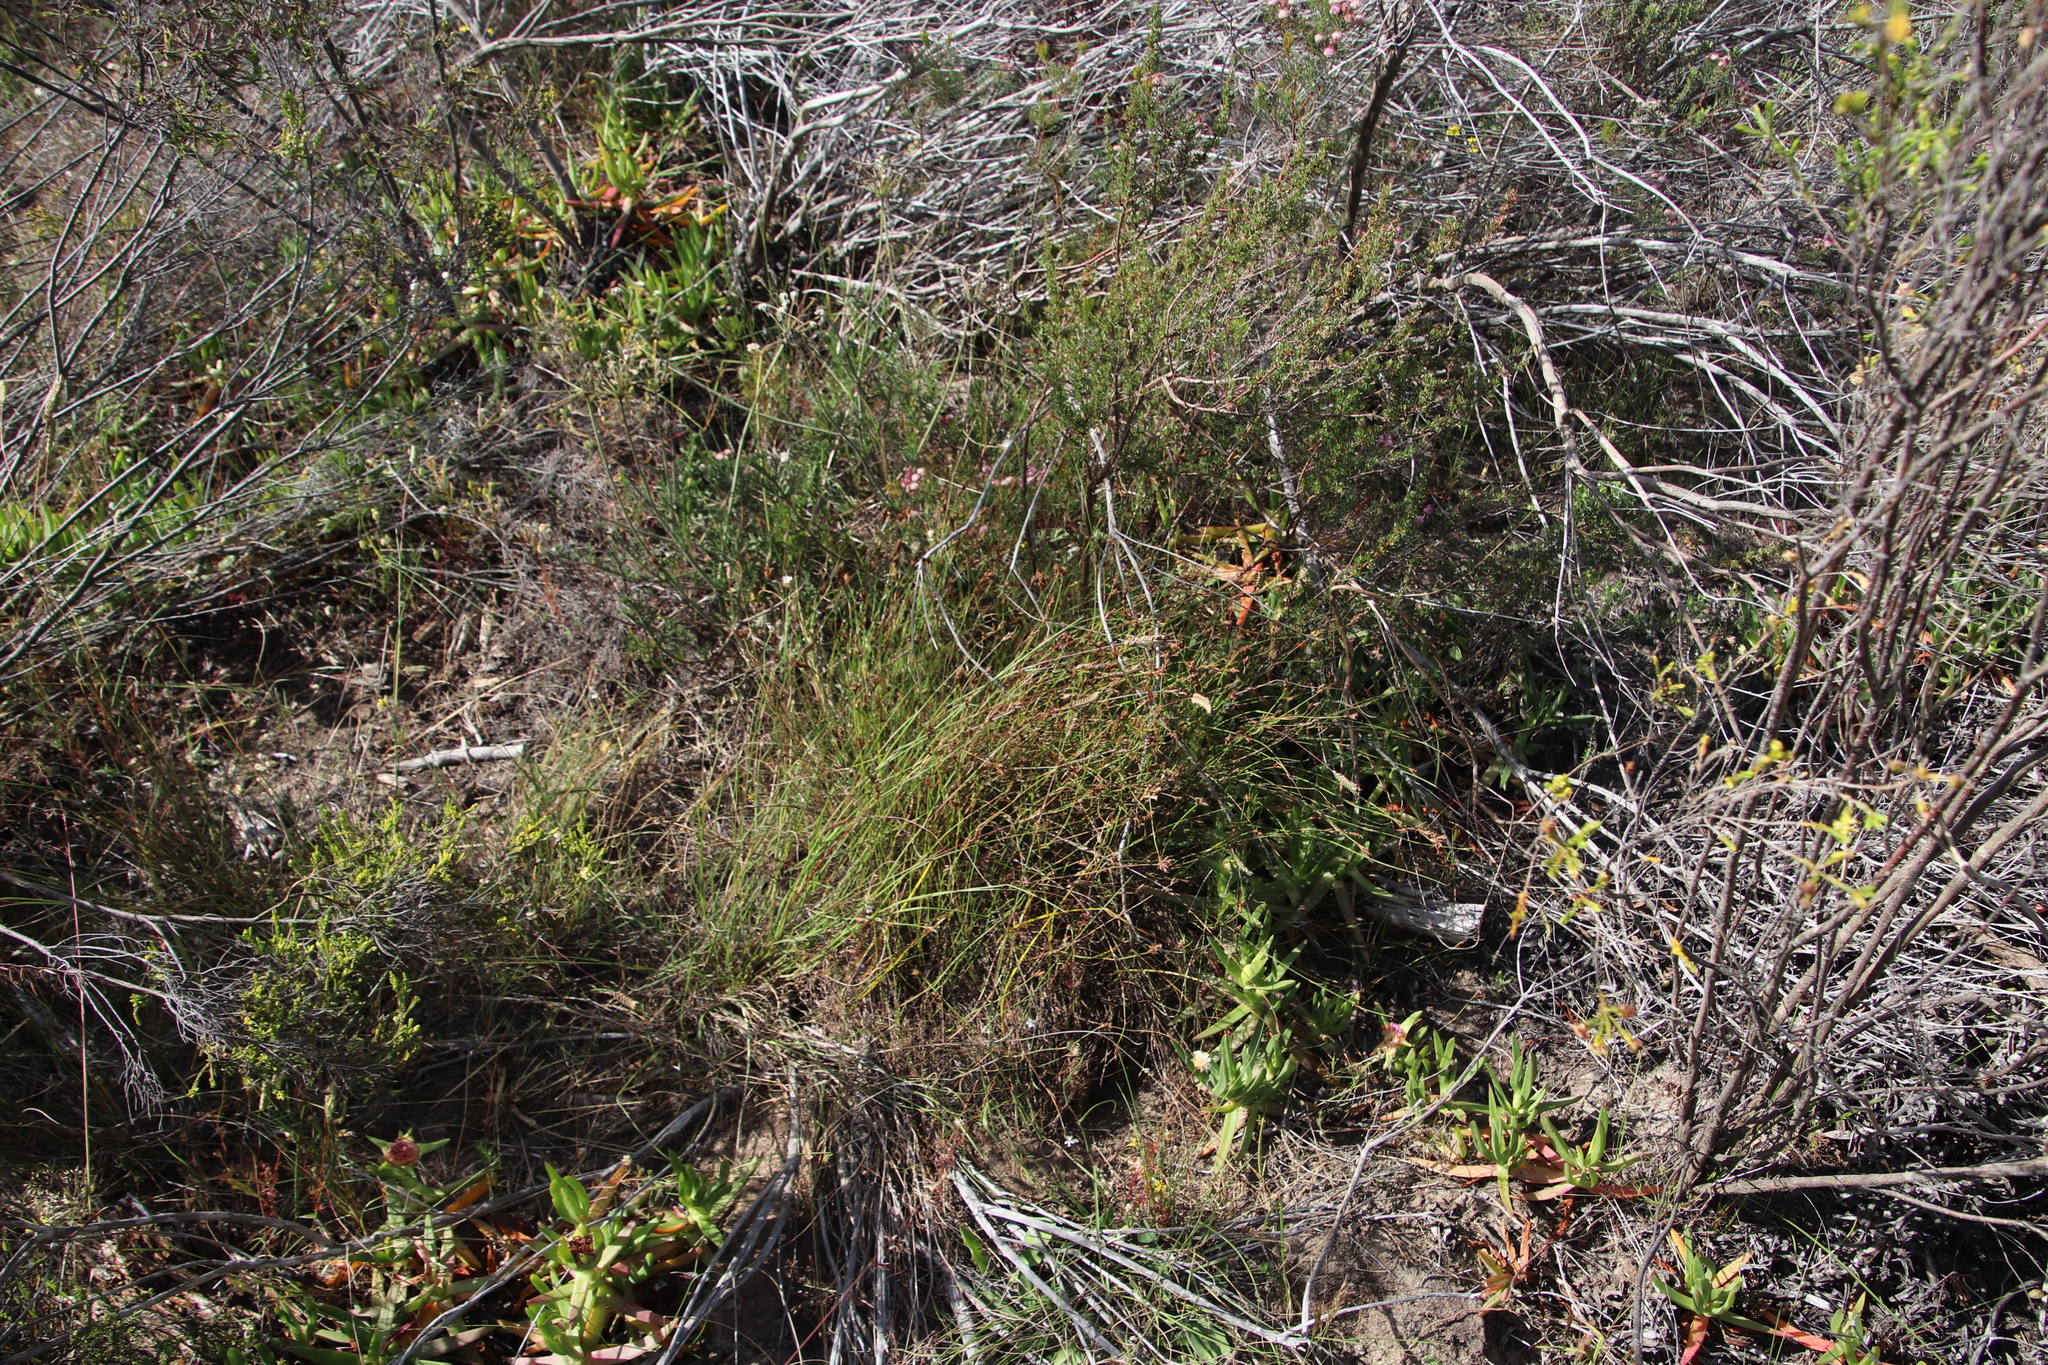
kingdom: Plantae
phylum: Tracheophyta
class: Liliopsida
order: Poales
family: Restionaceae
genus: Restio
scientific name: Restio capensis
